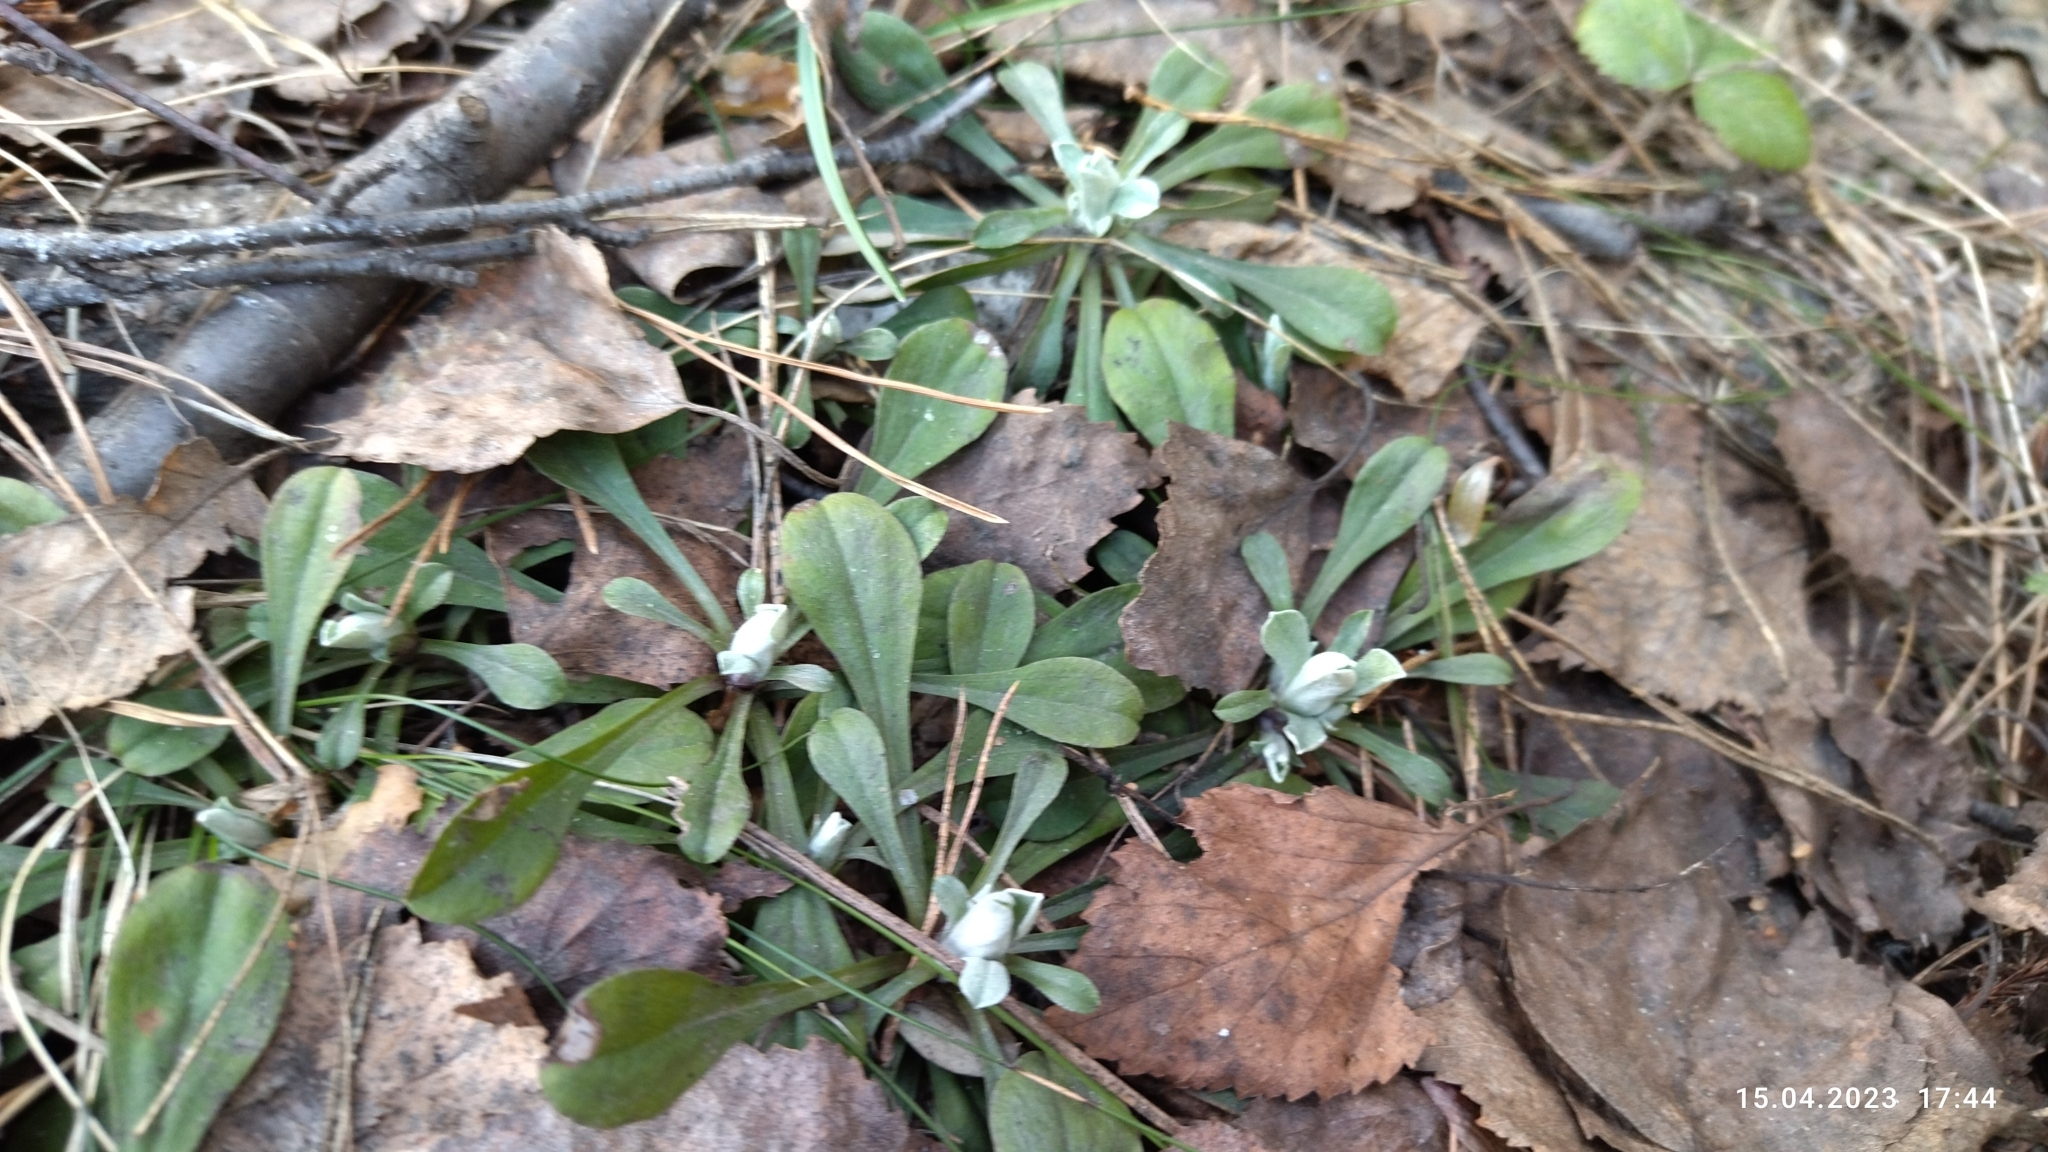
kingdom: Plantae
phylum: Tracheophyta
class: Magnoliopsida
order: Asterales
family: Asteraceae
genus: Antennaria
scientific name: Antennaria dioica
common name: Mountain everlasting
